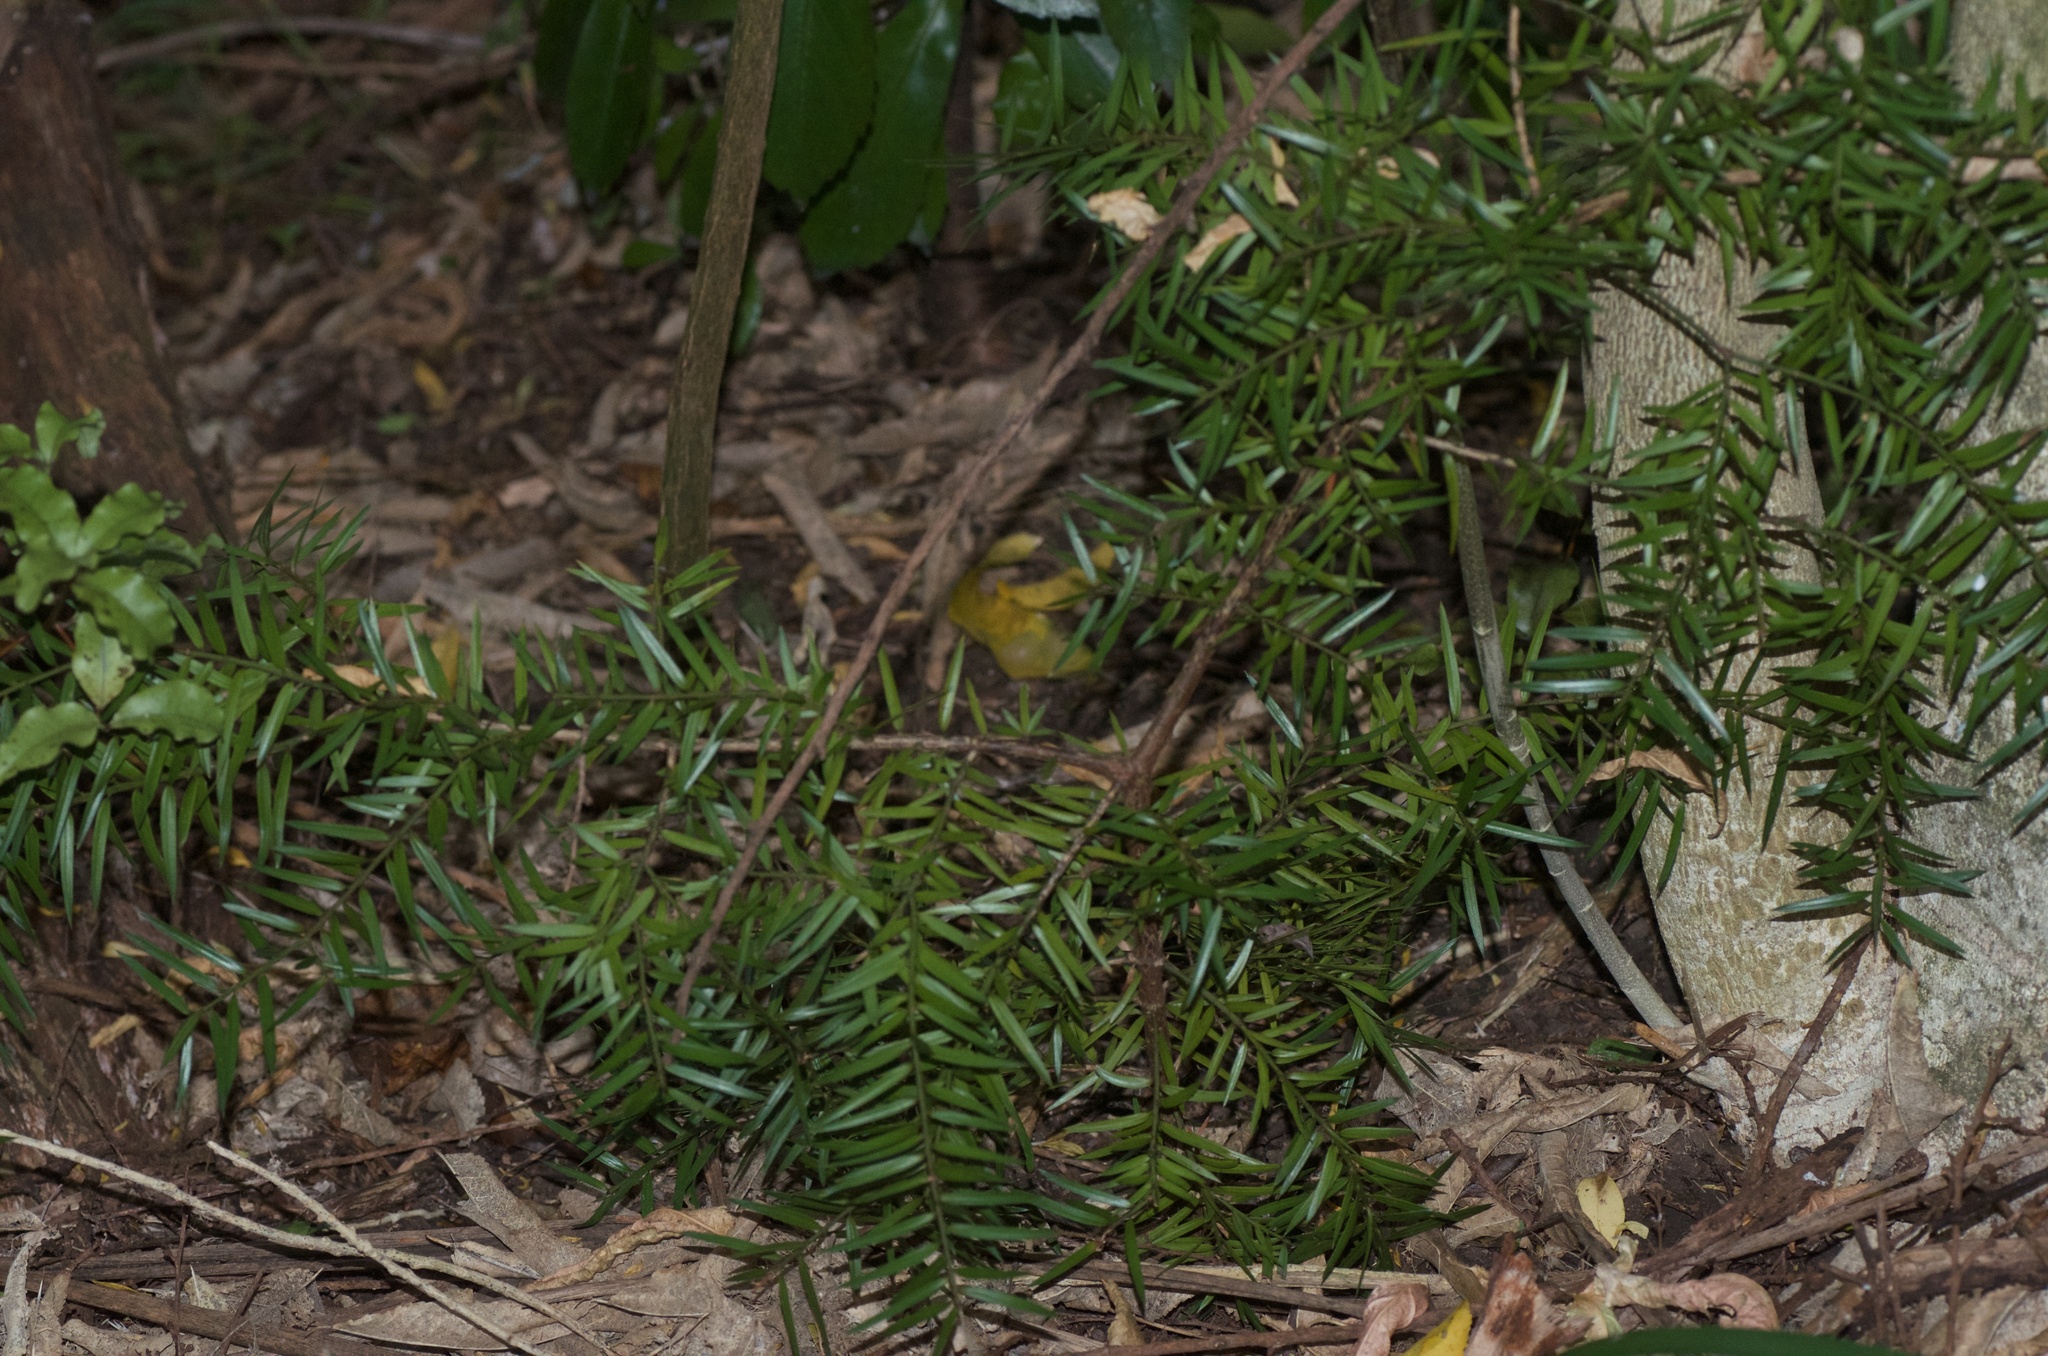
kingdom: Plantae
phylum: Tracheophyta
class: Pinopsida
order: Pinales
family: Podocarpaceae
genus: Podocarpus
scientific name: Podocarpus totara
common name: Totara
